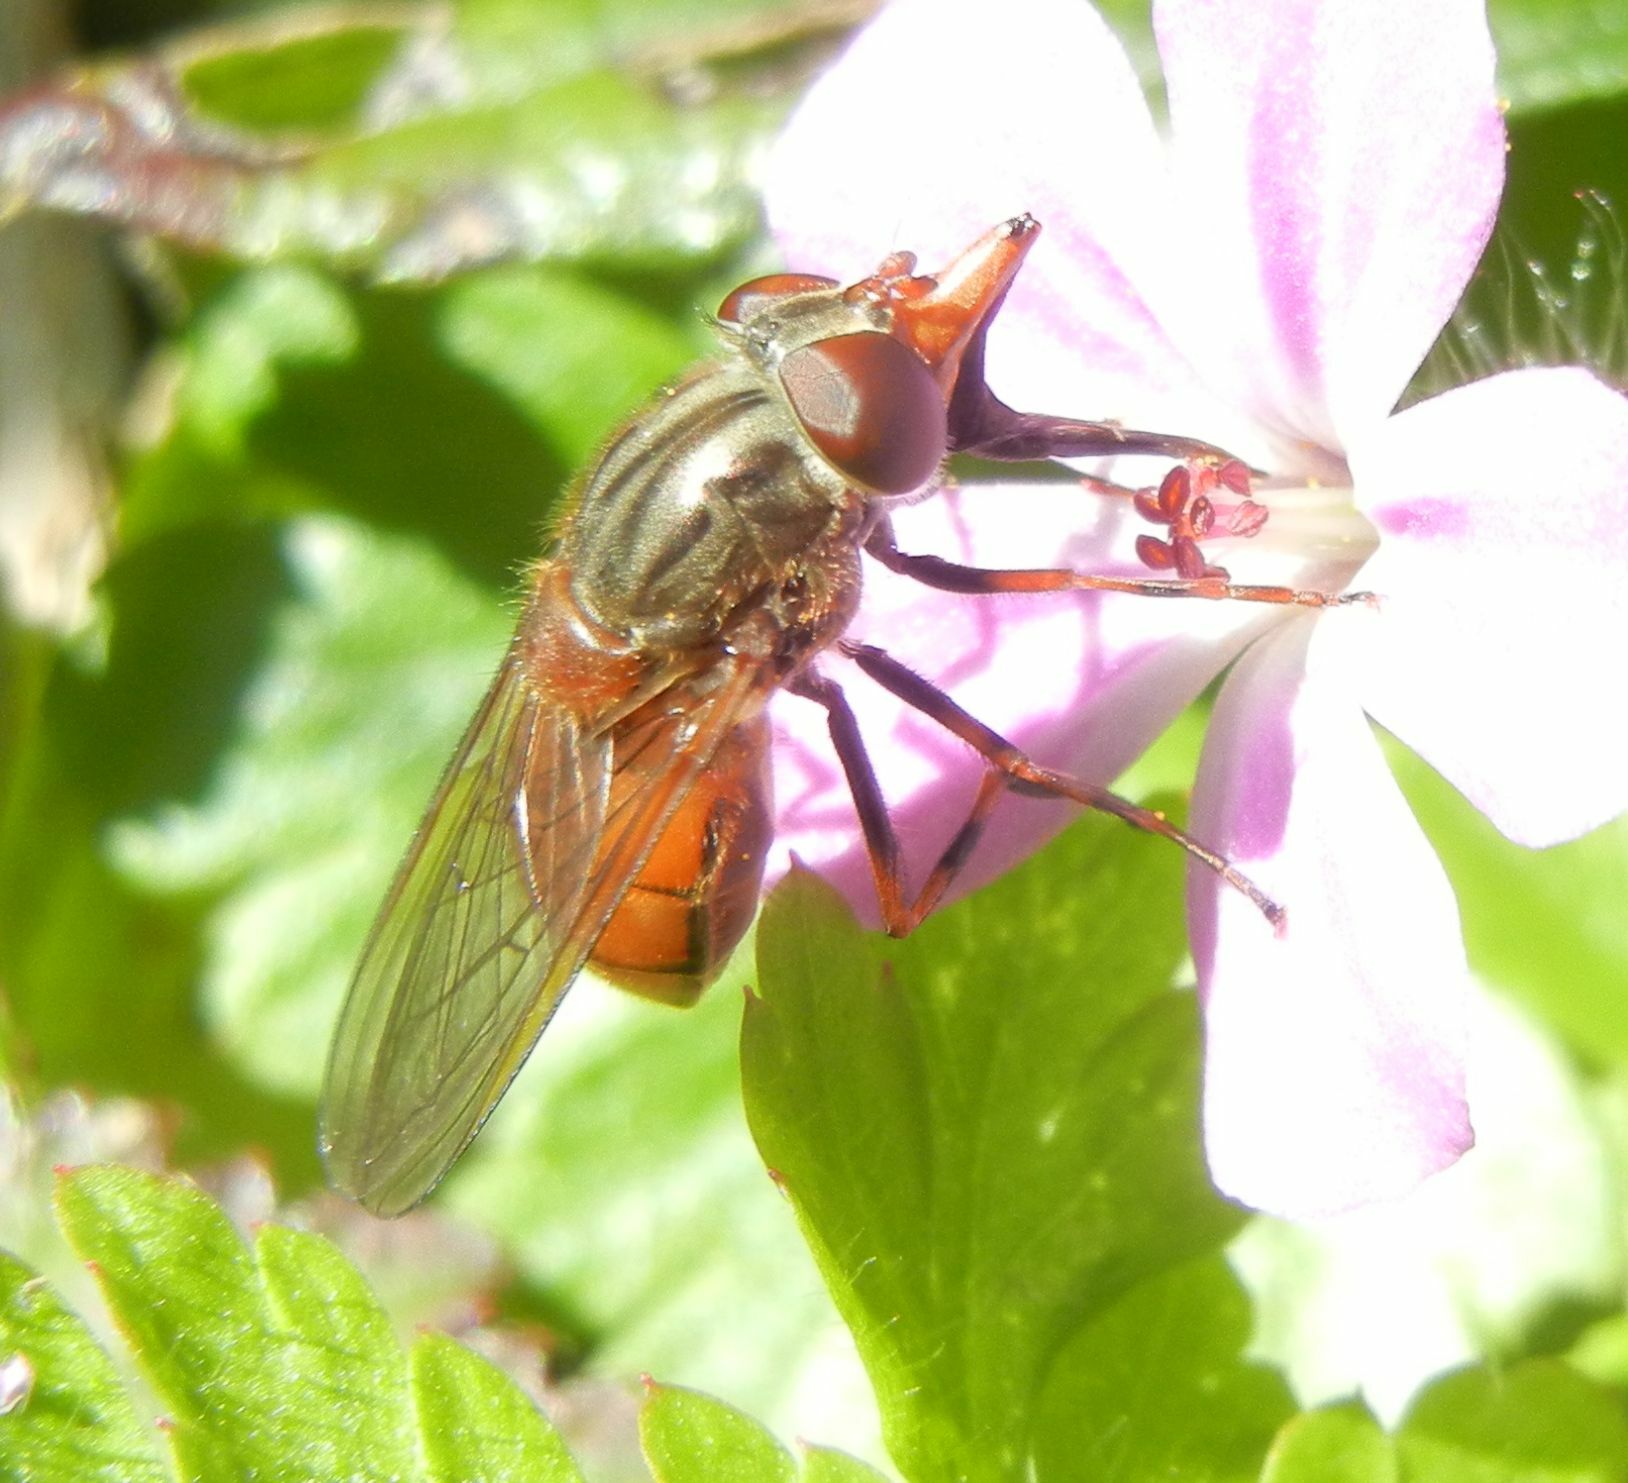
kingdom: Animalia
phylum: Arthropoda
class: Insecta
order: Diptera
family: Syrphidae
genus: Rhingia
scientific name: Rhingia campestris
